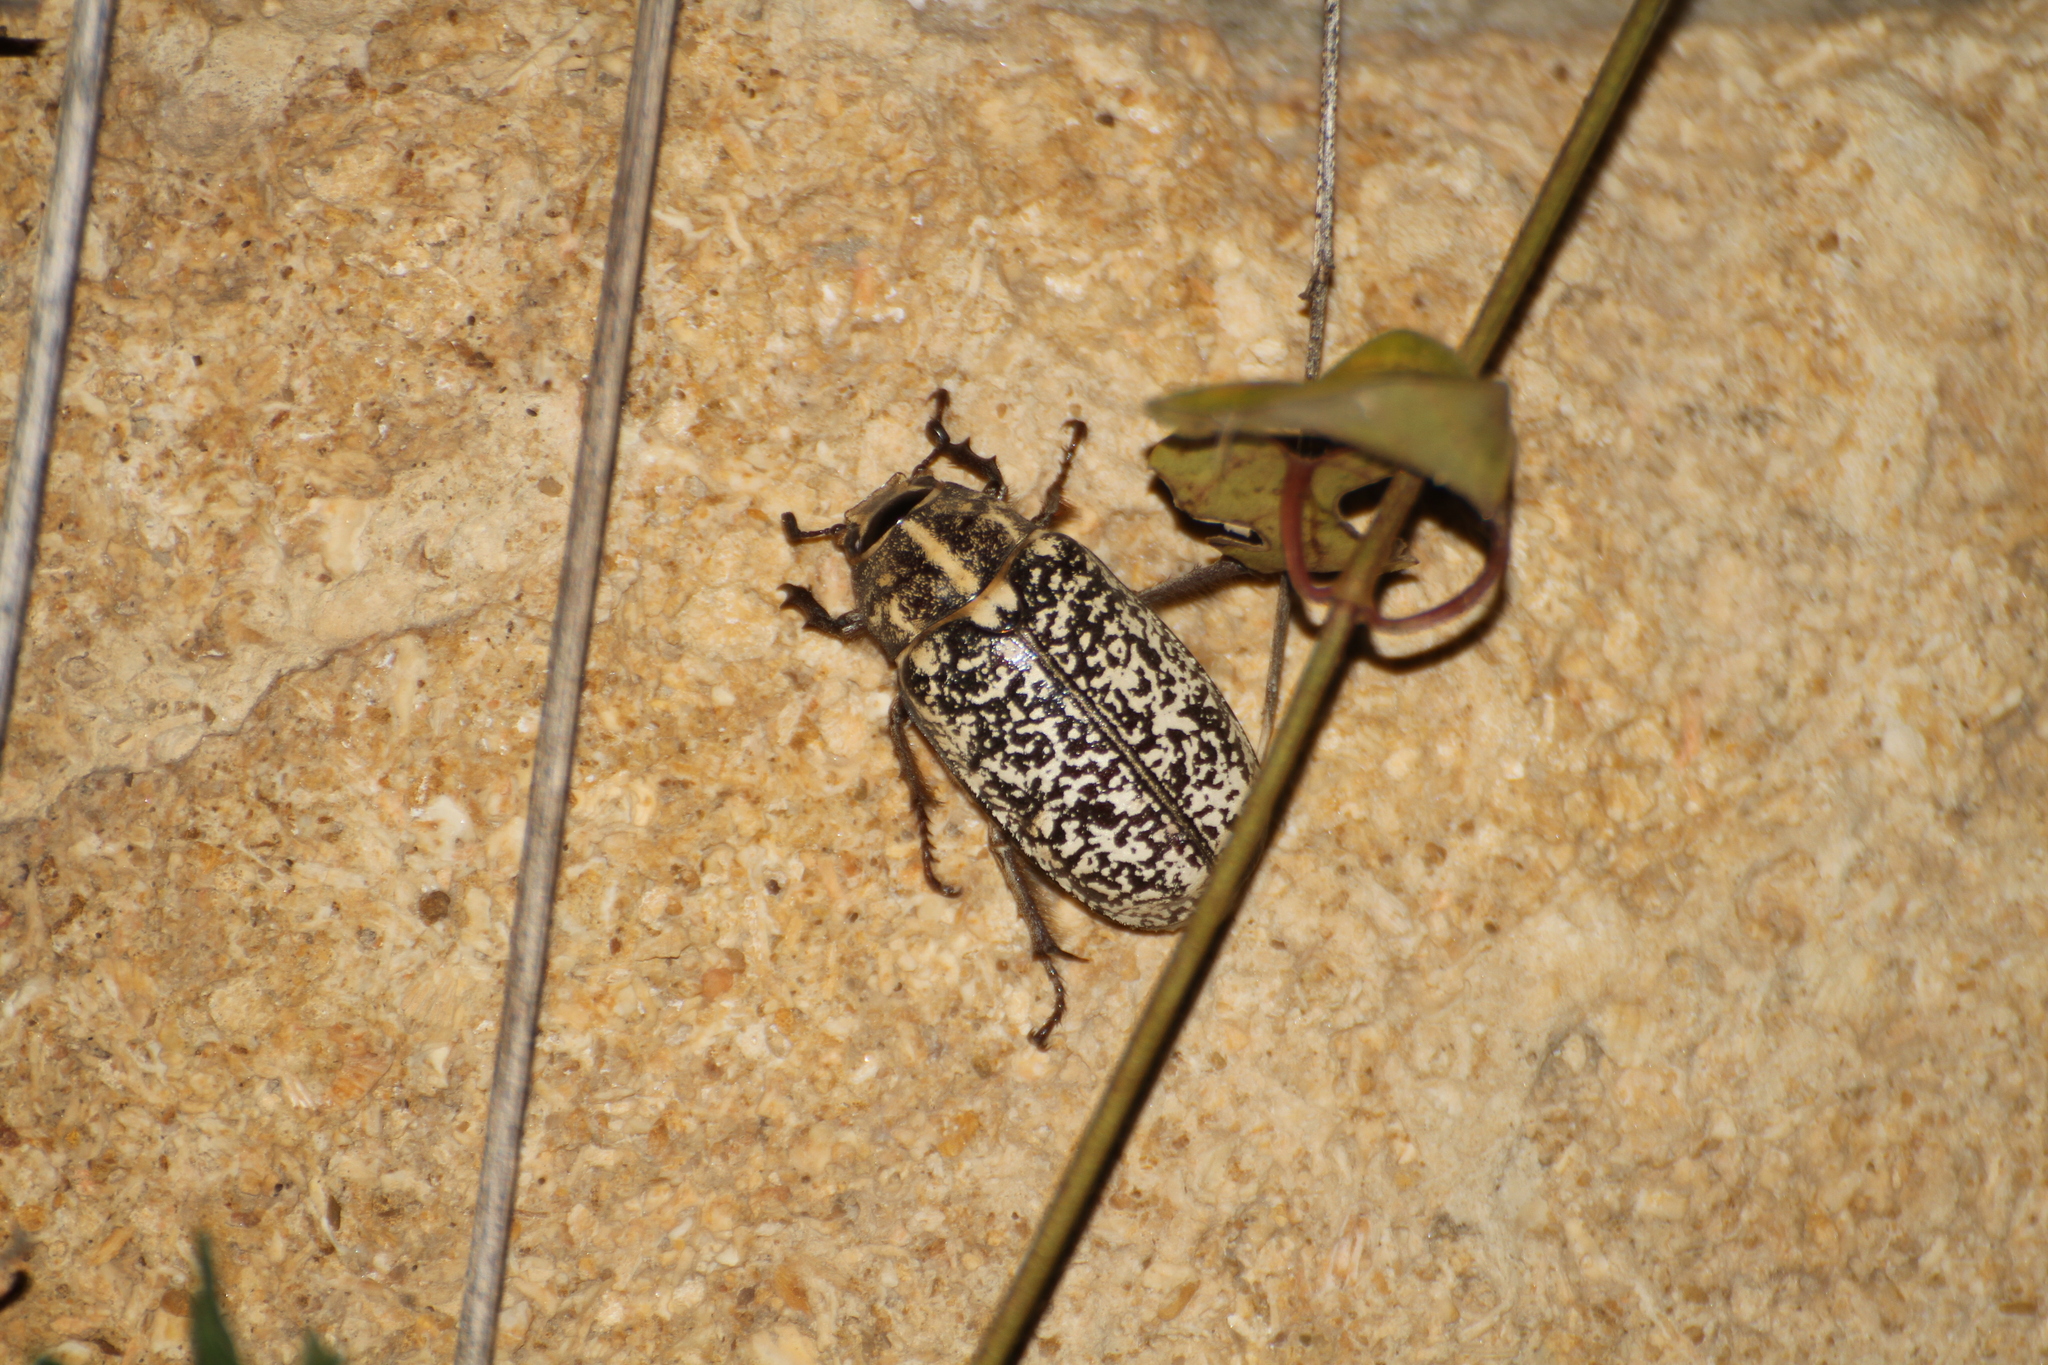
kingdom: Animalia
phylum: Arthropoda
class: Insecta
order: Coleoptera
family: Scarabaeidae
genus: Polyphylla
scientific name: Polyphylla fullo
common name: Pine chafer
